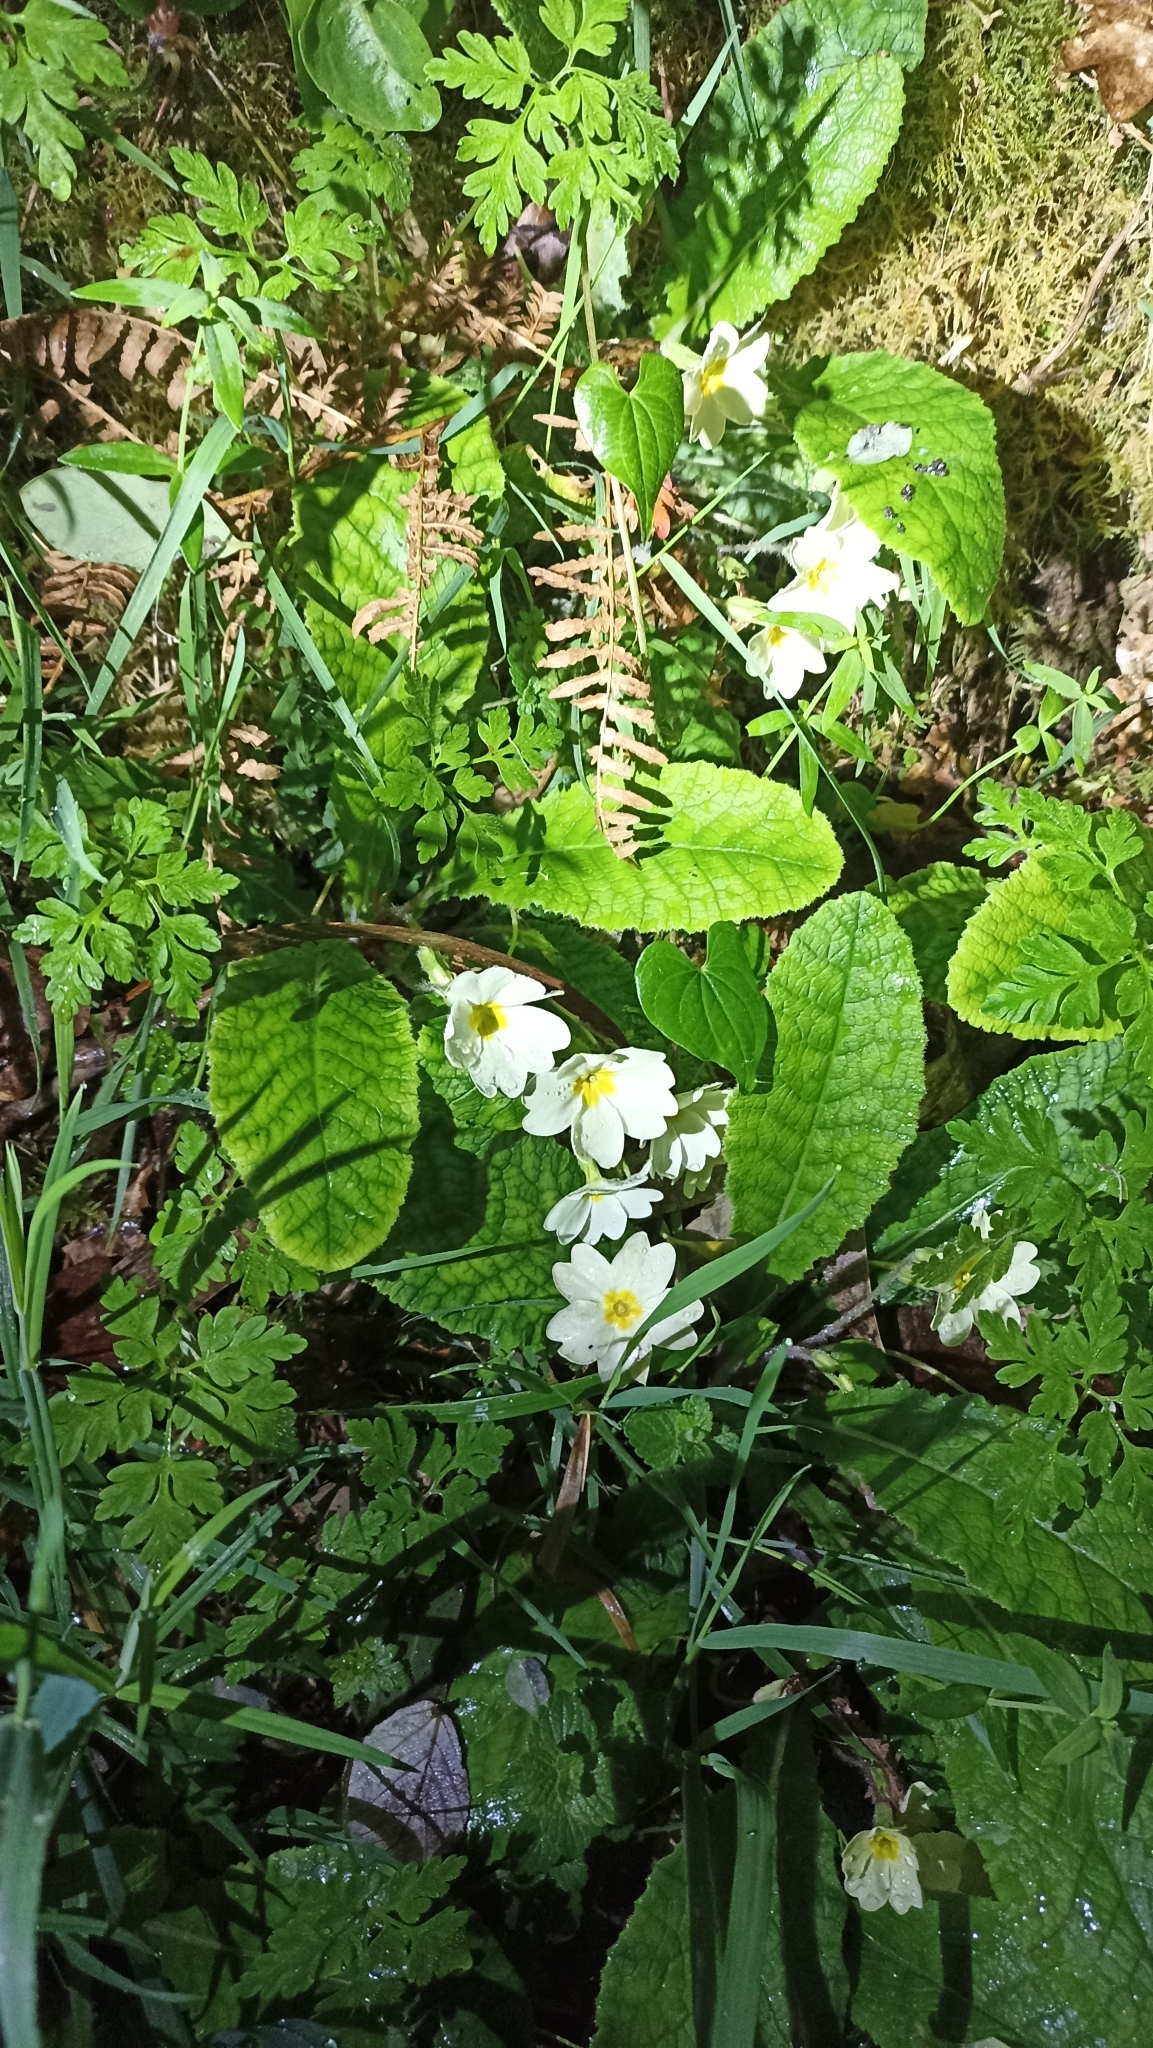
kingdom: Plantae
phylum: Tracheophyta
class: Magnoliopsida
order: Ericales
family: Primulaceae
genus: Primula
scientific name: Primula vulgaris
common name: Primrose
